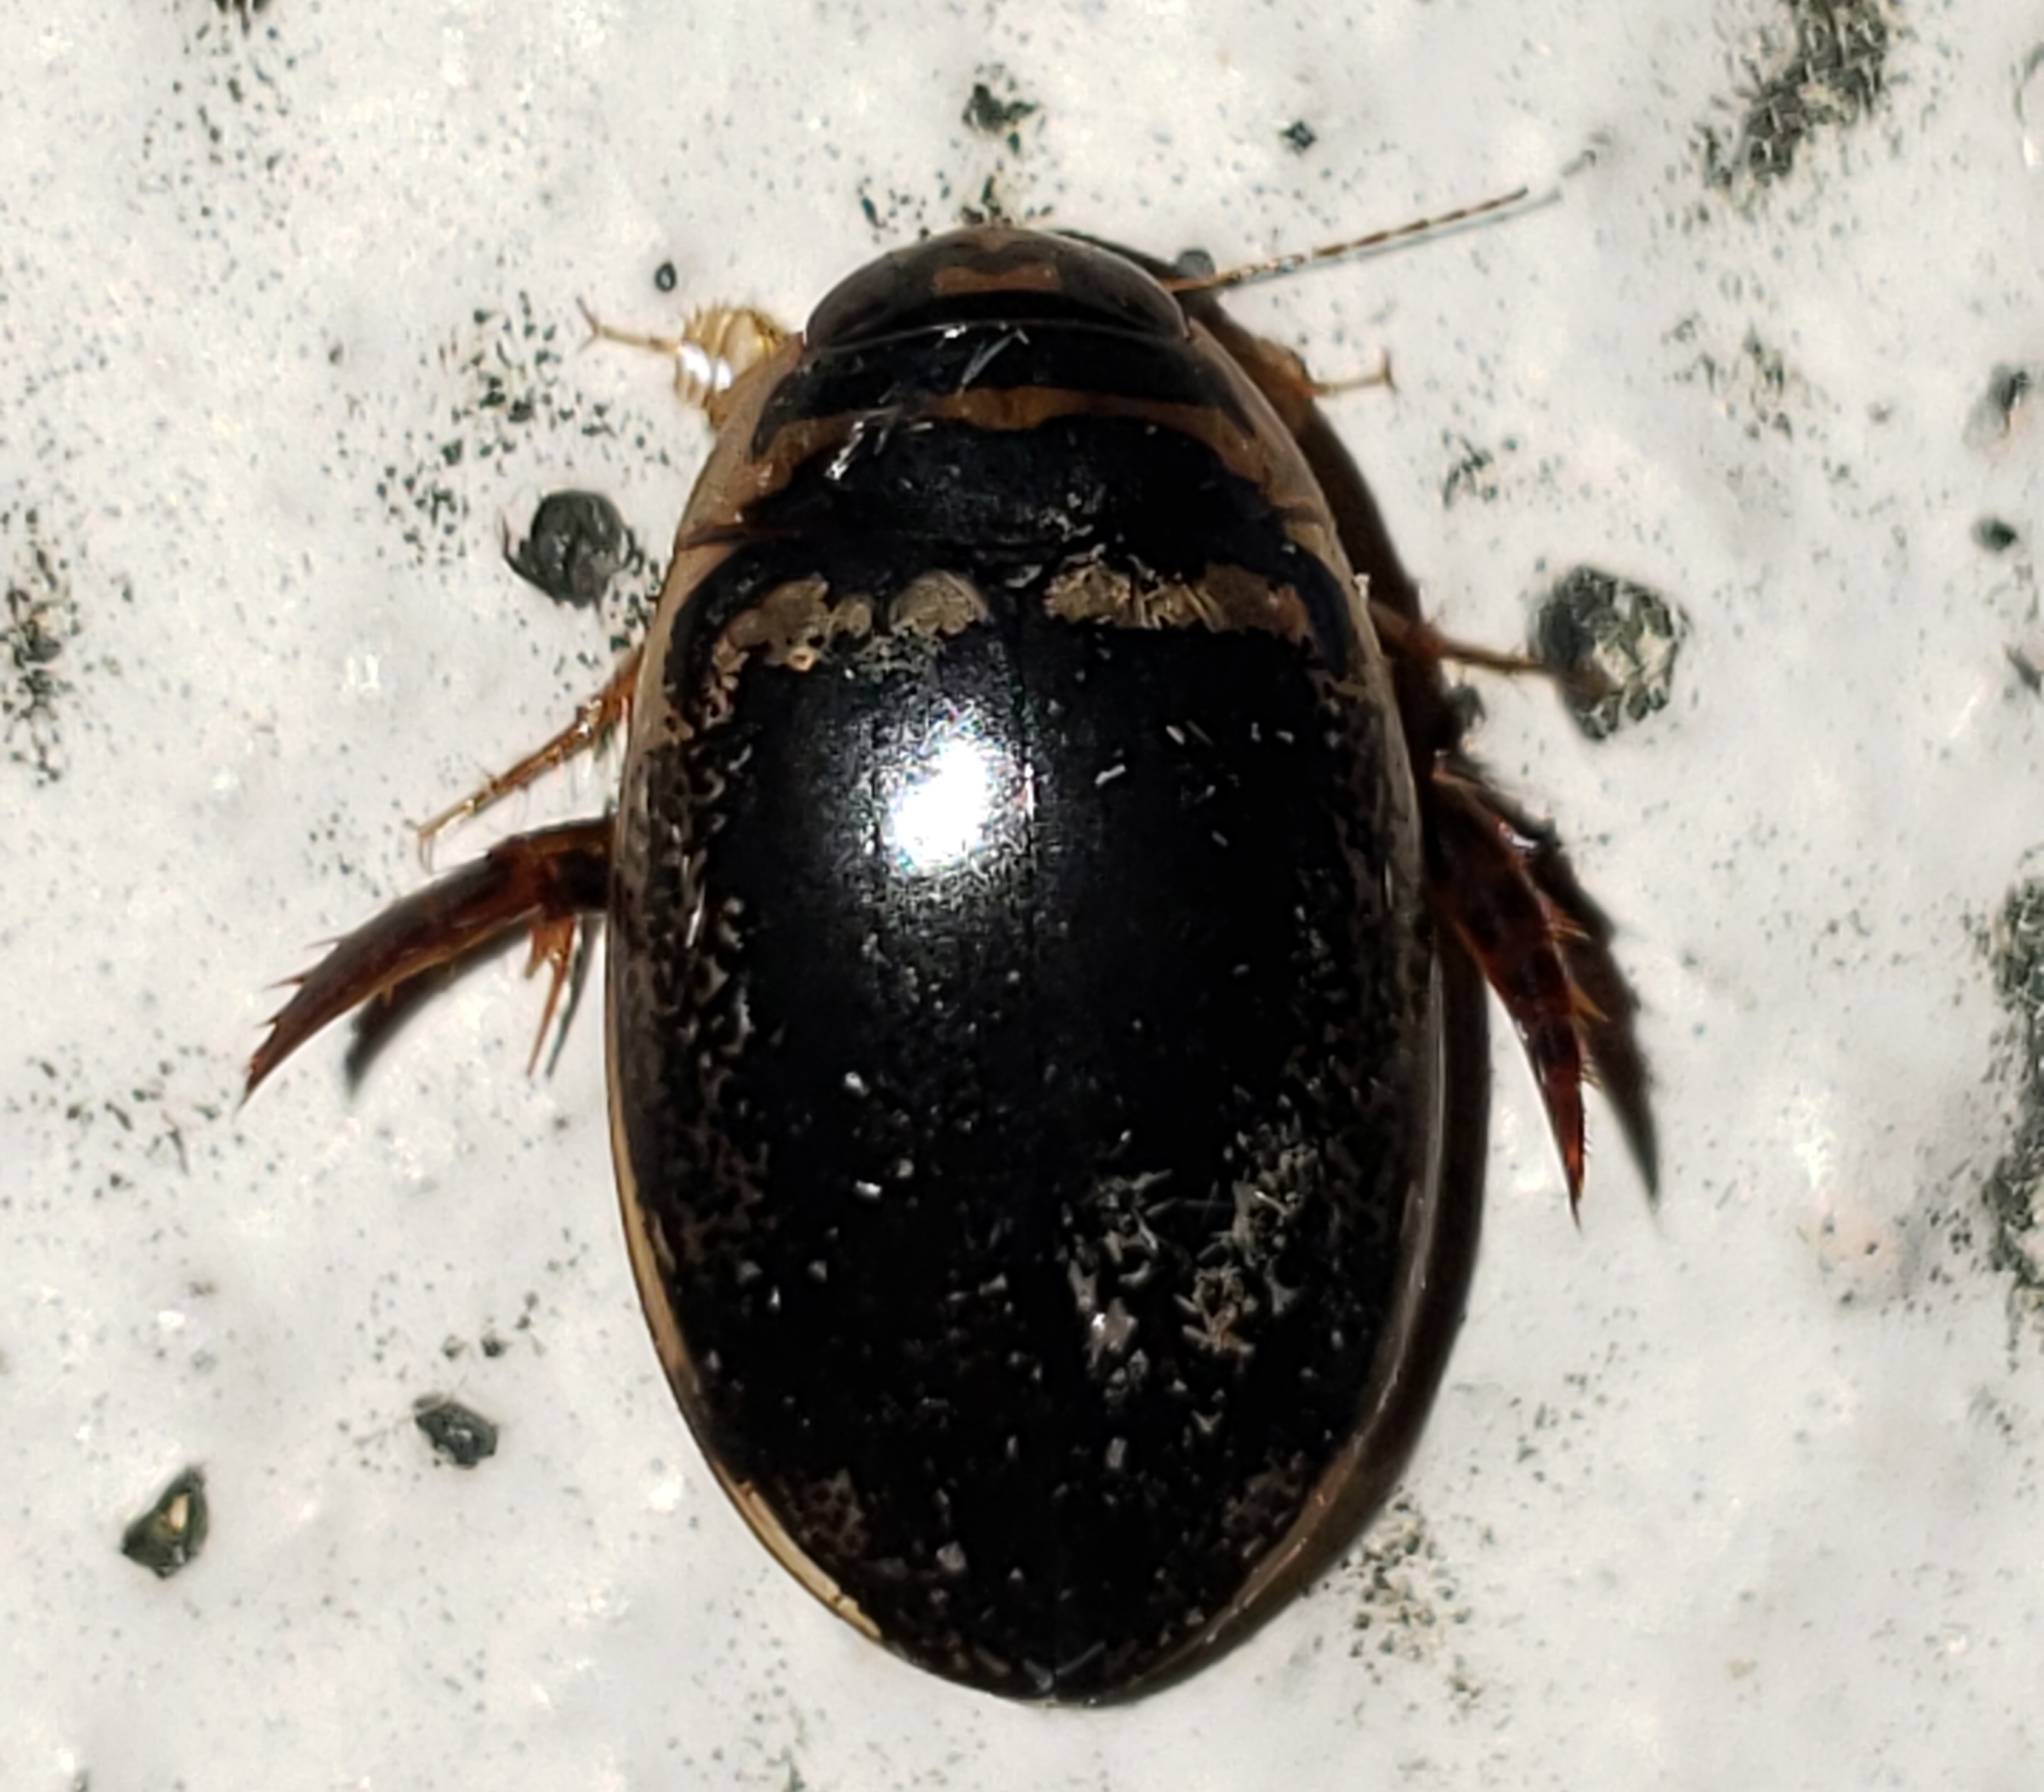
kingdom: Animalia
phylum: Arthropoda
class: Insecta
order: Coleoptera
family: Dytiscidae
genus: Thermonectus
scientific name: Thermonectus basillaris
